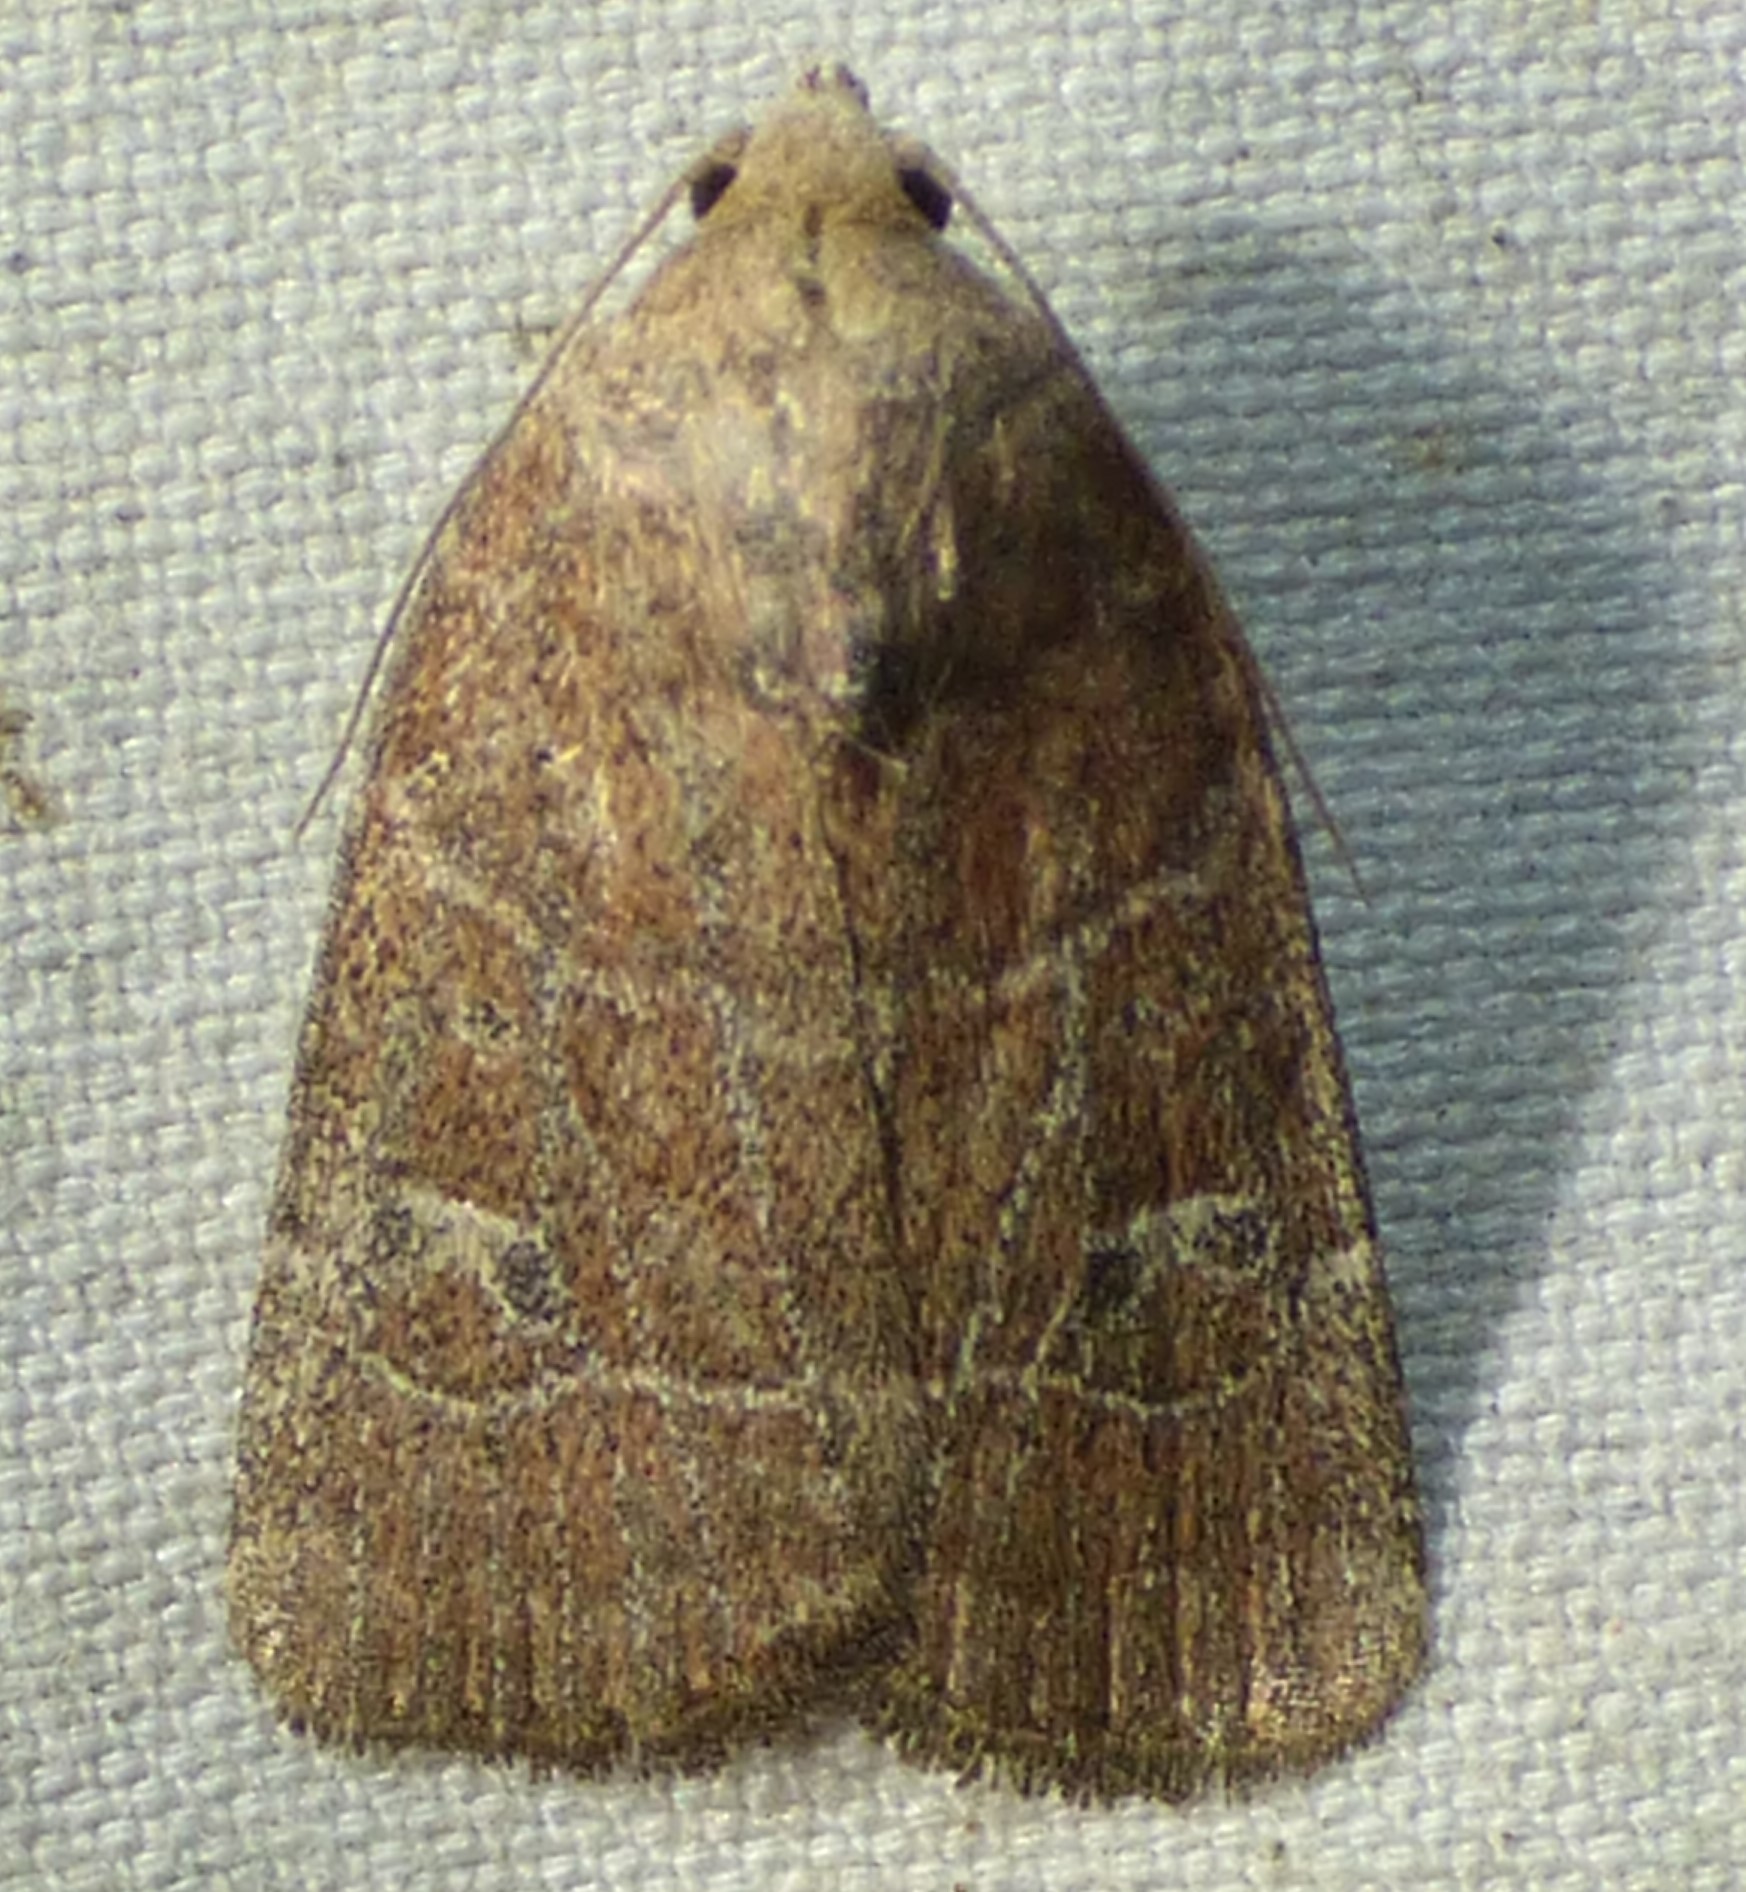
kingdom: Animalia
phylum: Arthropoda
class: Insecta
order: Lepidoptera
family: Noctuidae
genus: Elaphria
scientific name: Elaphria grata
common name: Grateful midget moth
